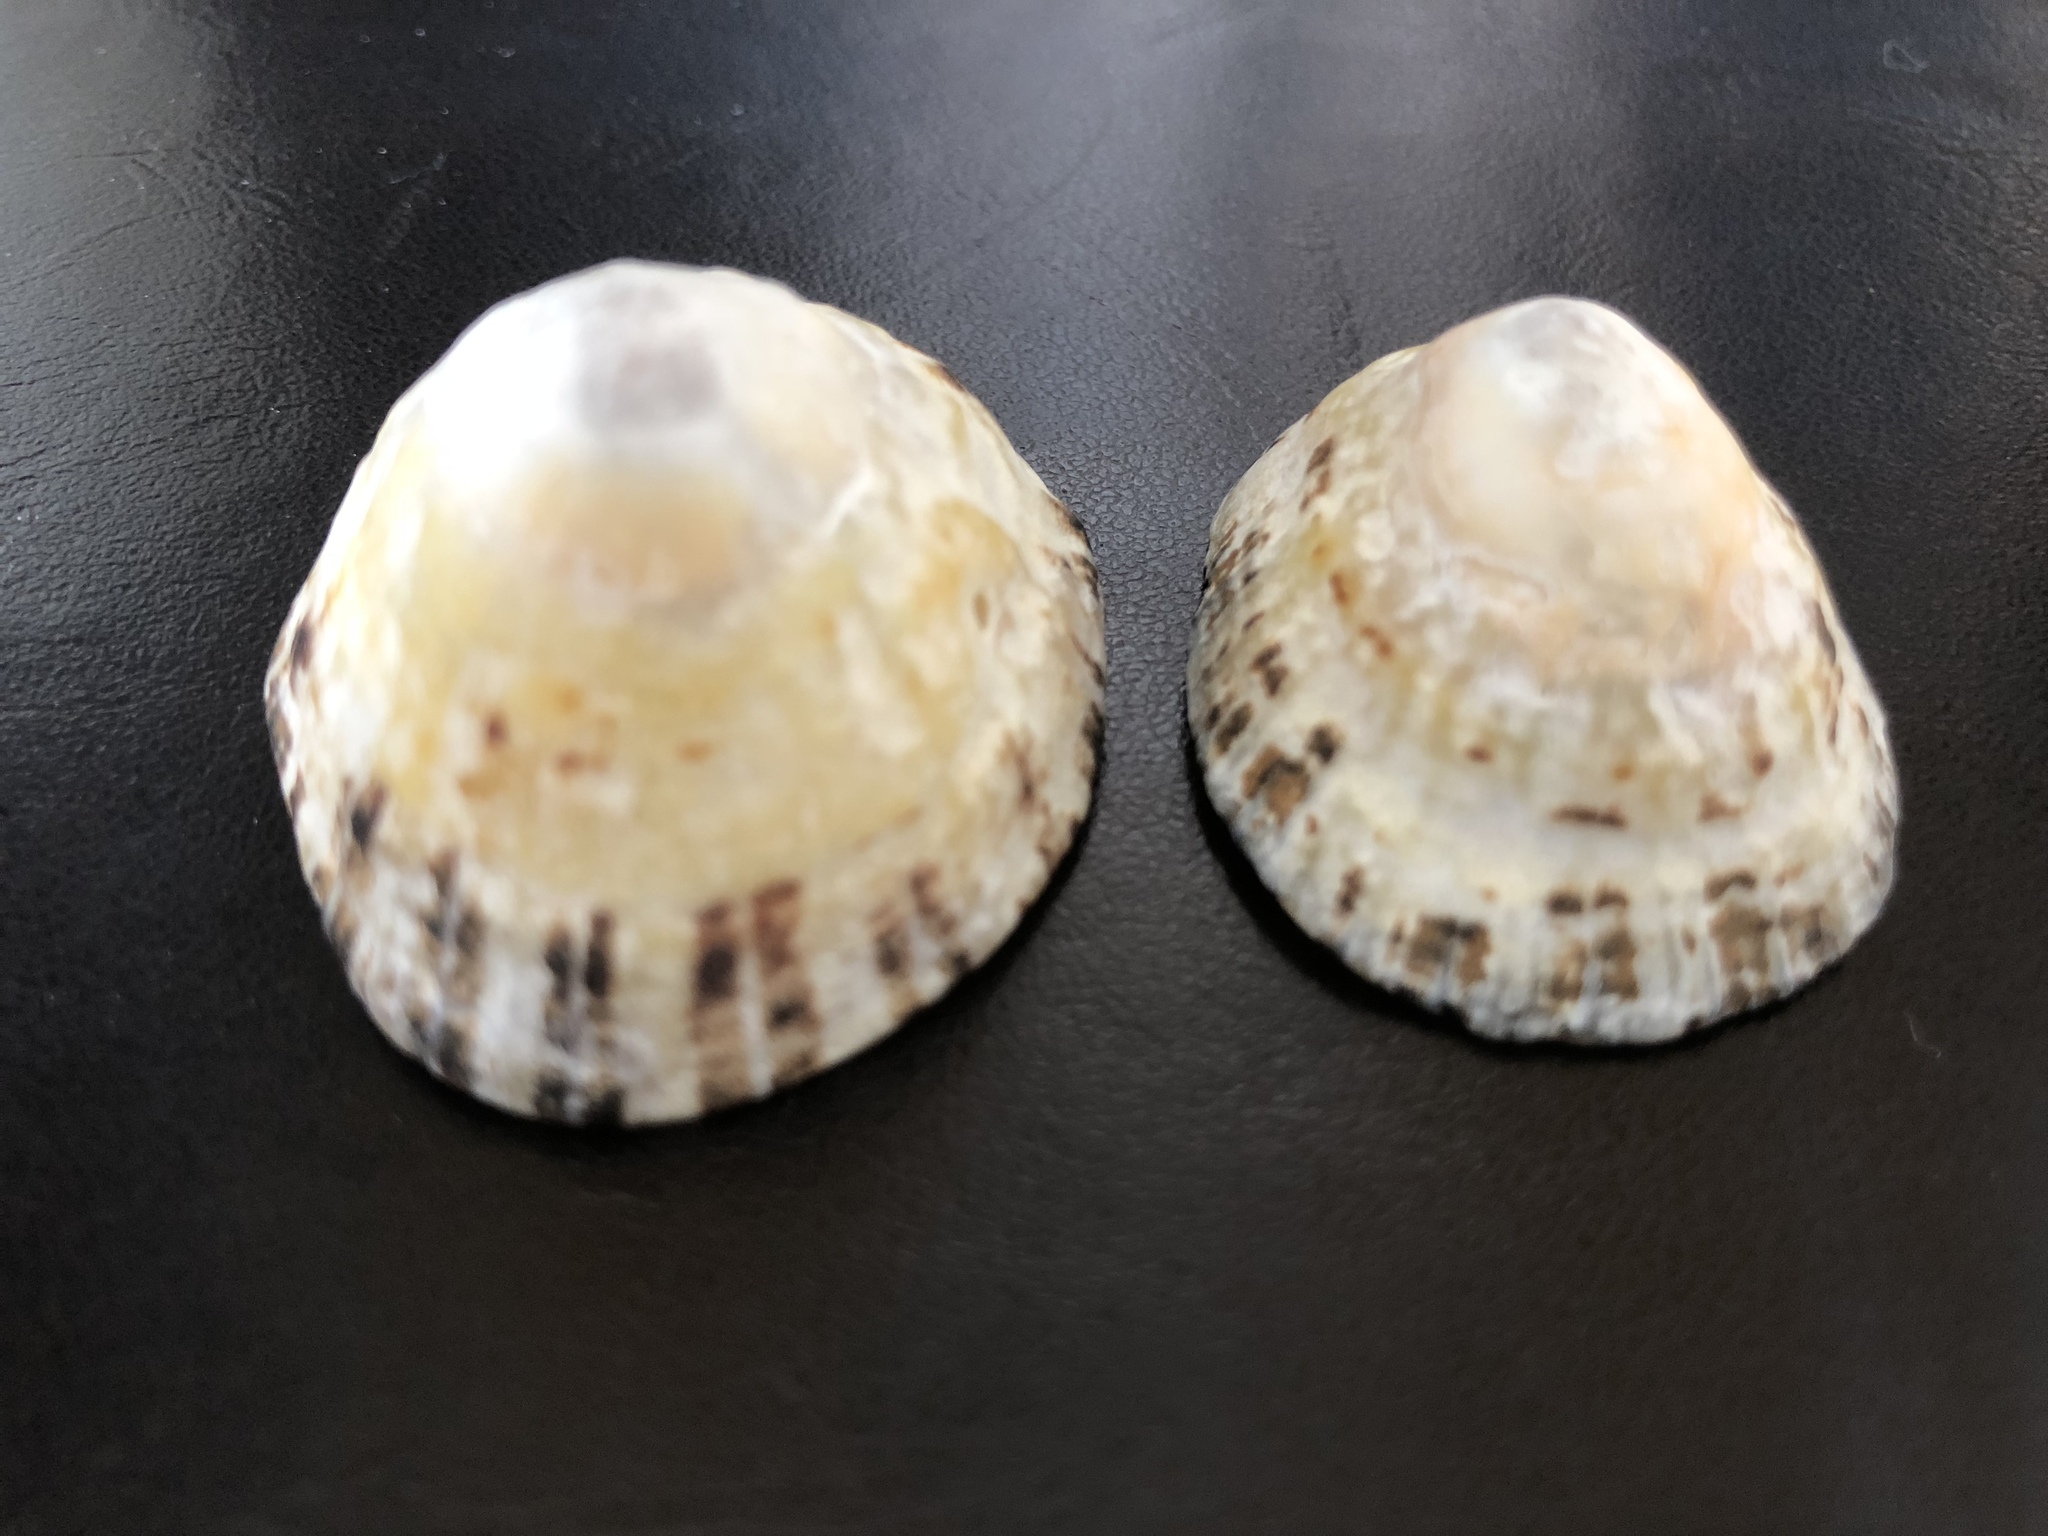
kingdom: Animalia
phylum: Mollusca
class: Gastropoda
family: Patellidae
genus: Patella
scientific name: Patella vulgata
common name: Common limpet
